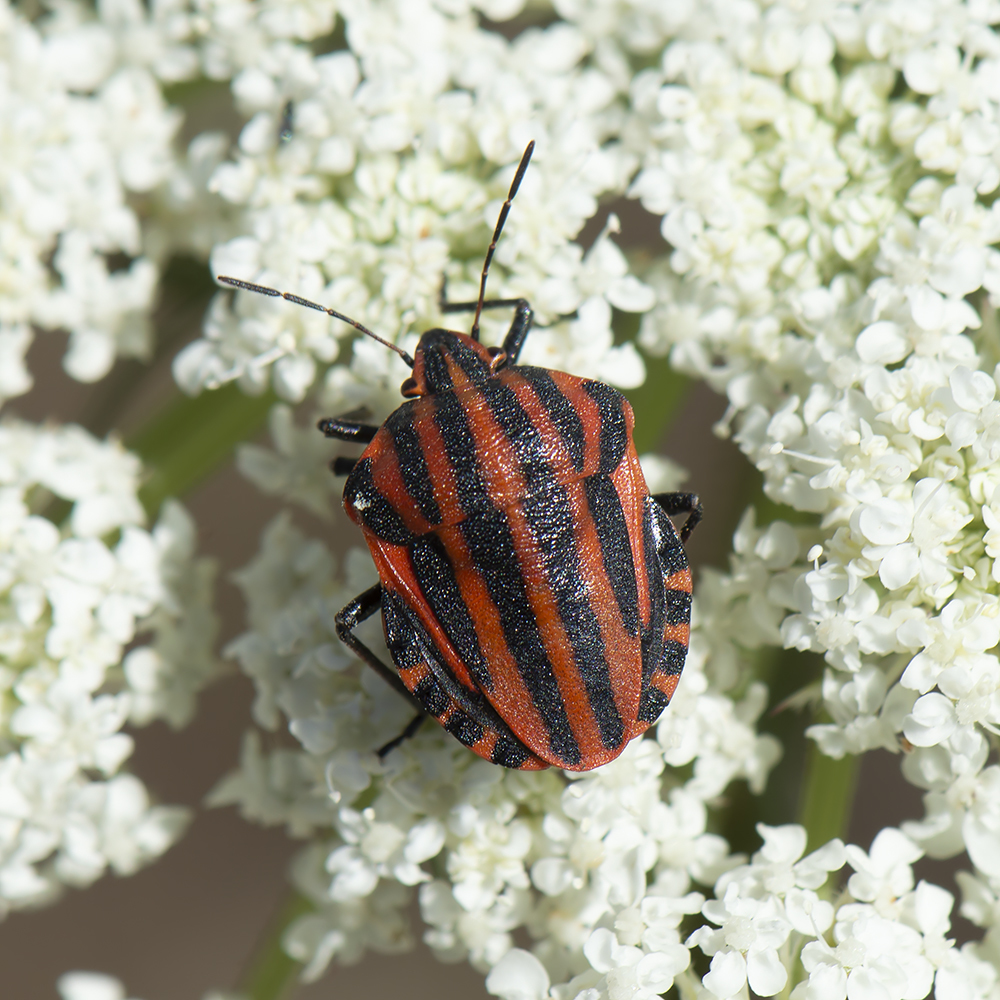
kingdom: Animalia
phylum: Arthropoda
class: Insecta
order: Hemiptera
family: Pentatomidae
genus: Graphosoma
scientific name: Graphosoma italicum
